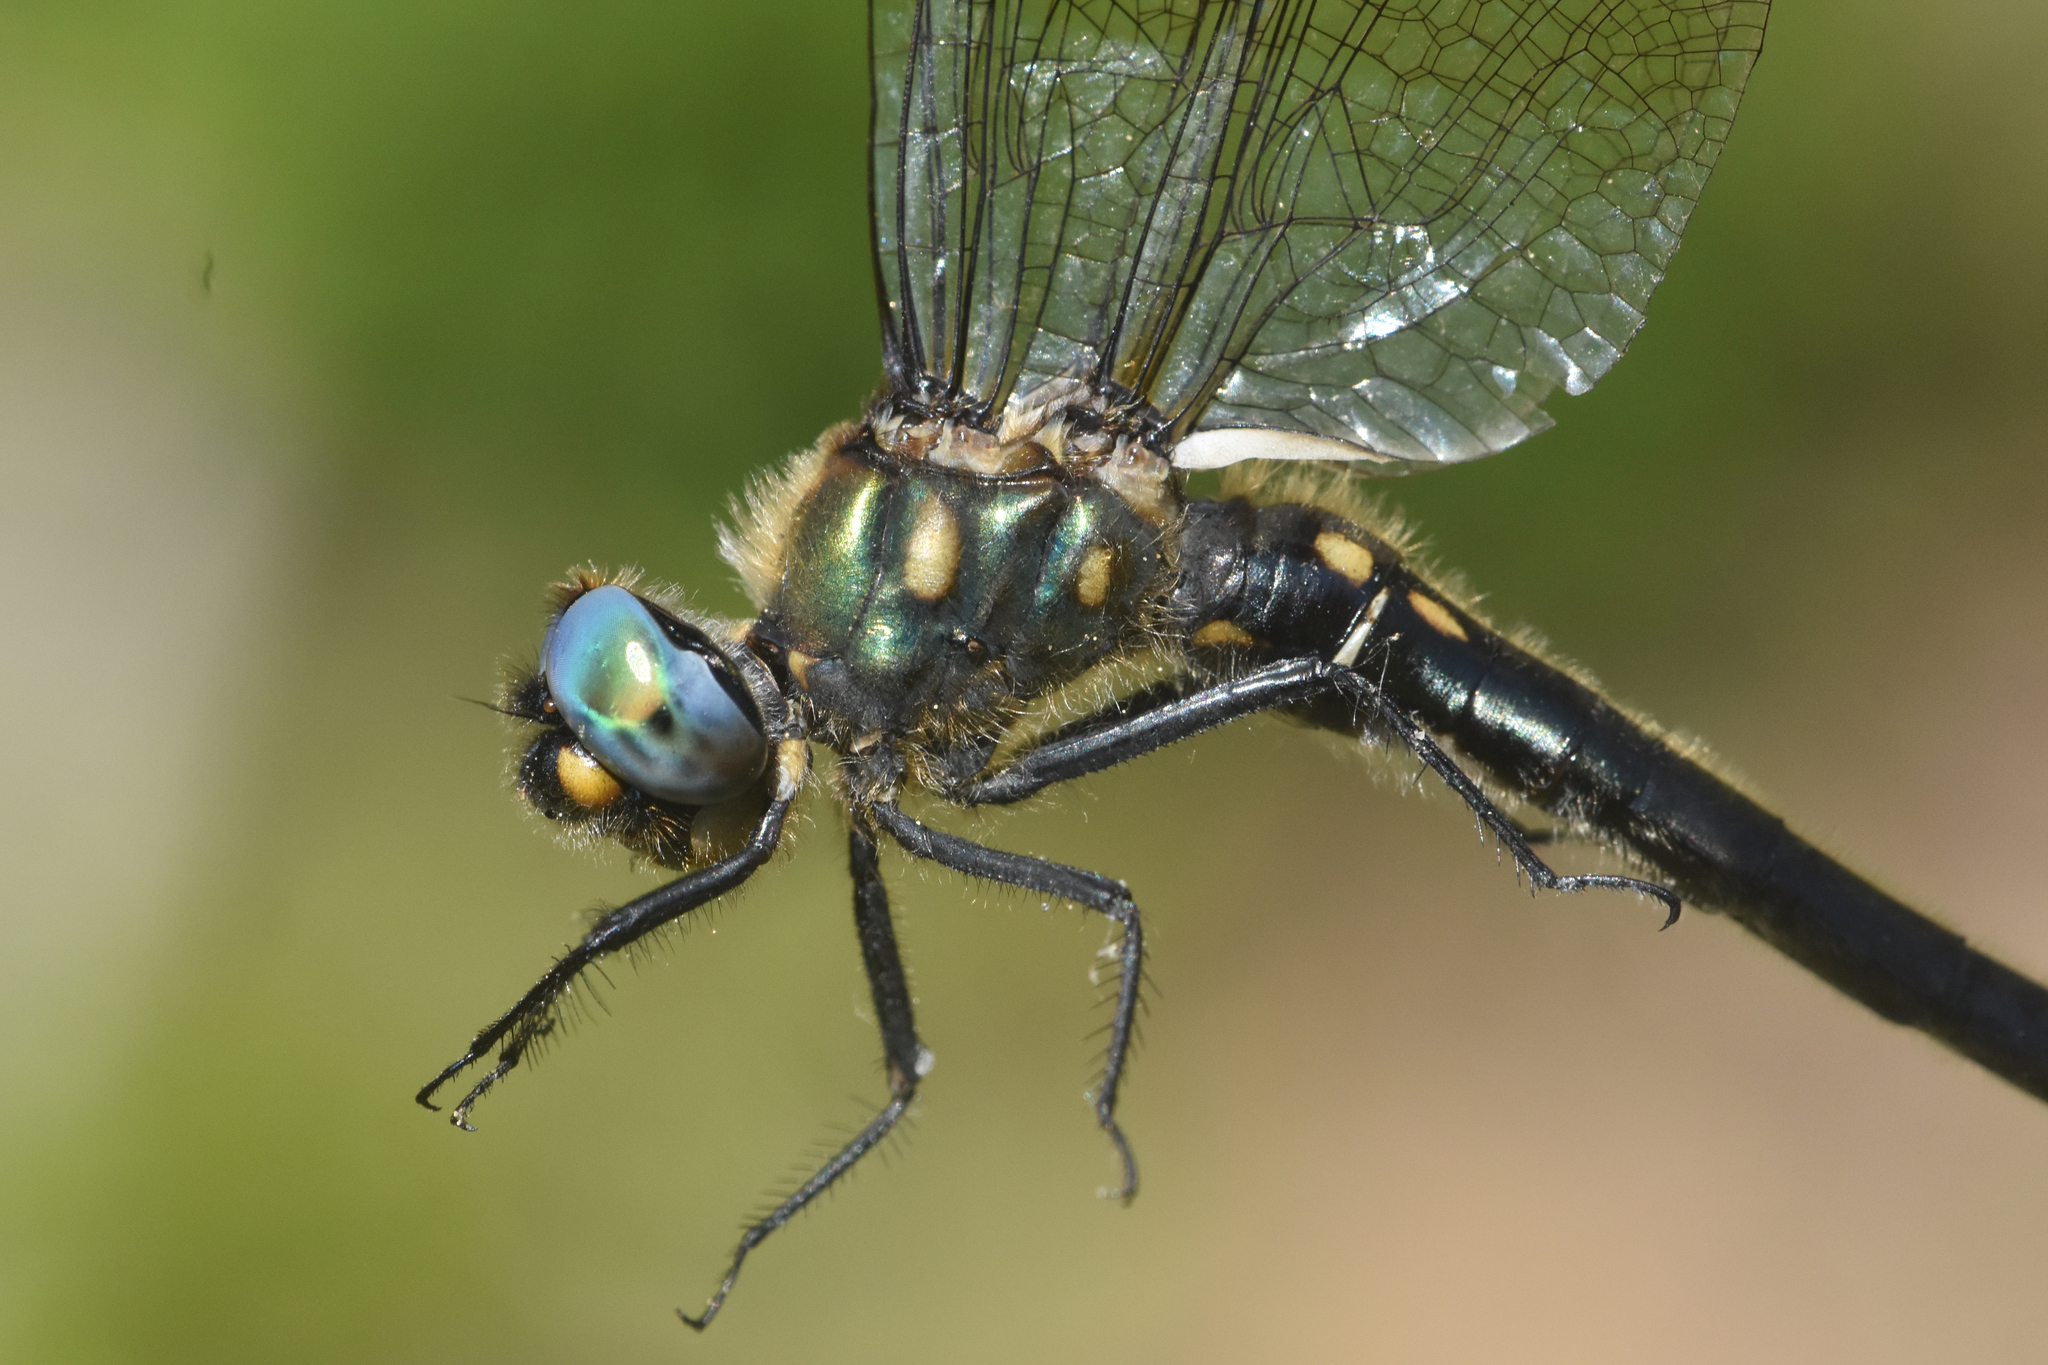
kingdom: Animalia
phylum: Arthropoda
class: Insecta
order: Odonata
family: Corduliidae
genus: Somatochlora
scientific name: Somatochlora semicircularis
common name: Mountain emerald
